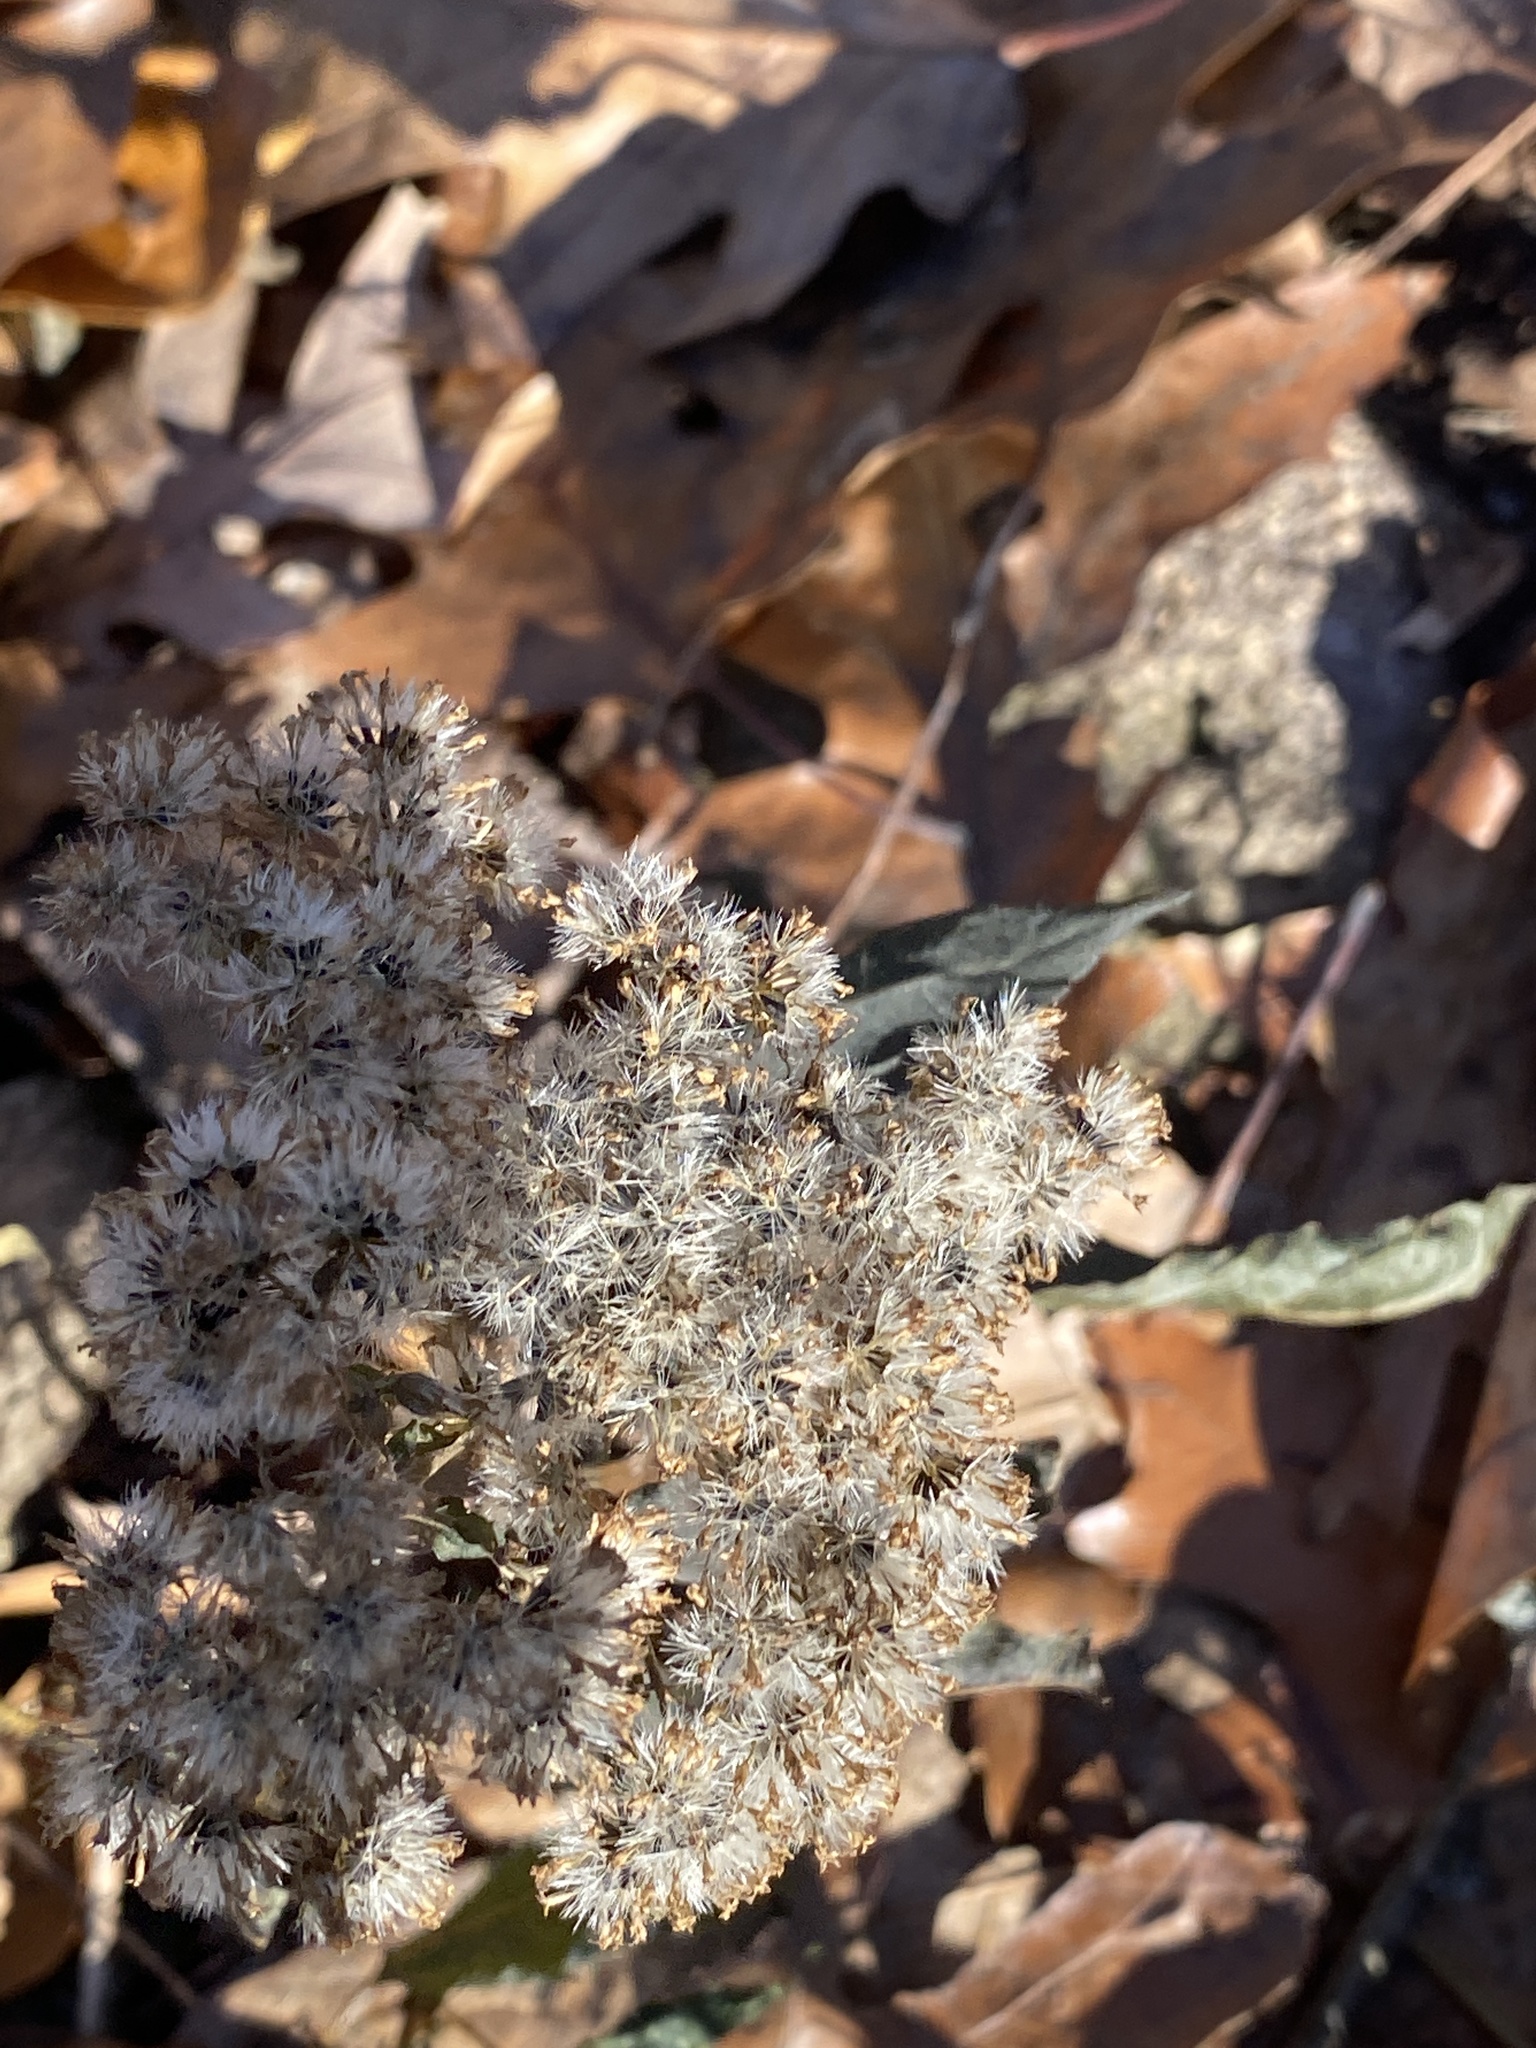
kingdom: Plantae
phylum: Tracheophyta
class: Magnoliopsida
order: Asterales
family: Asteraceae
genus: Ageratina
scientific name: Ageratina altissima
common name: White snakeroot
